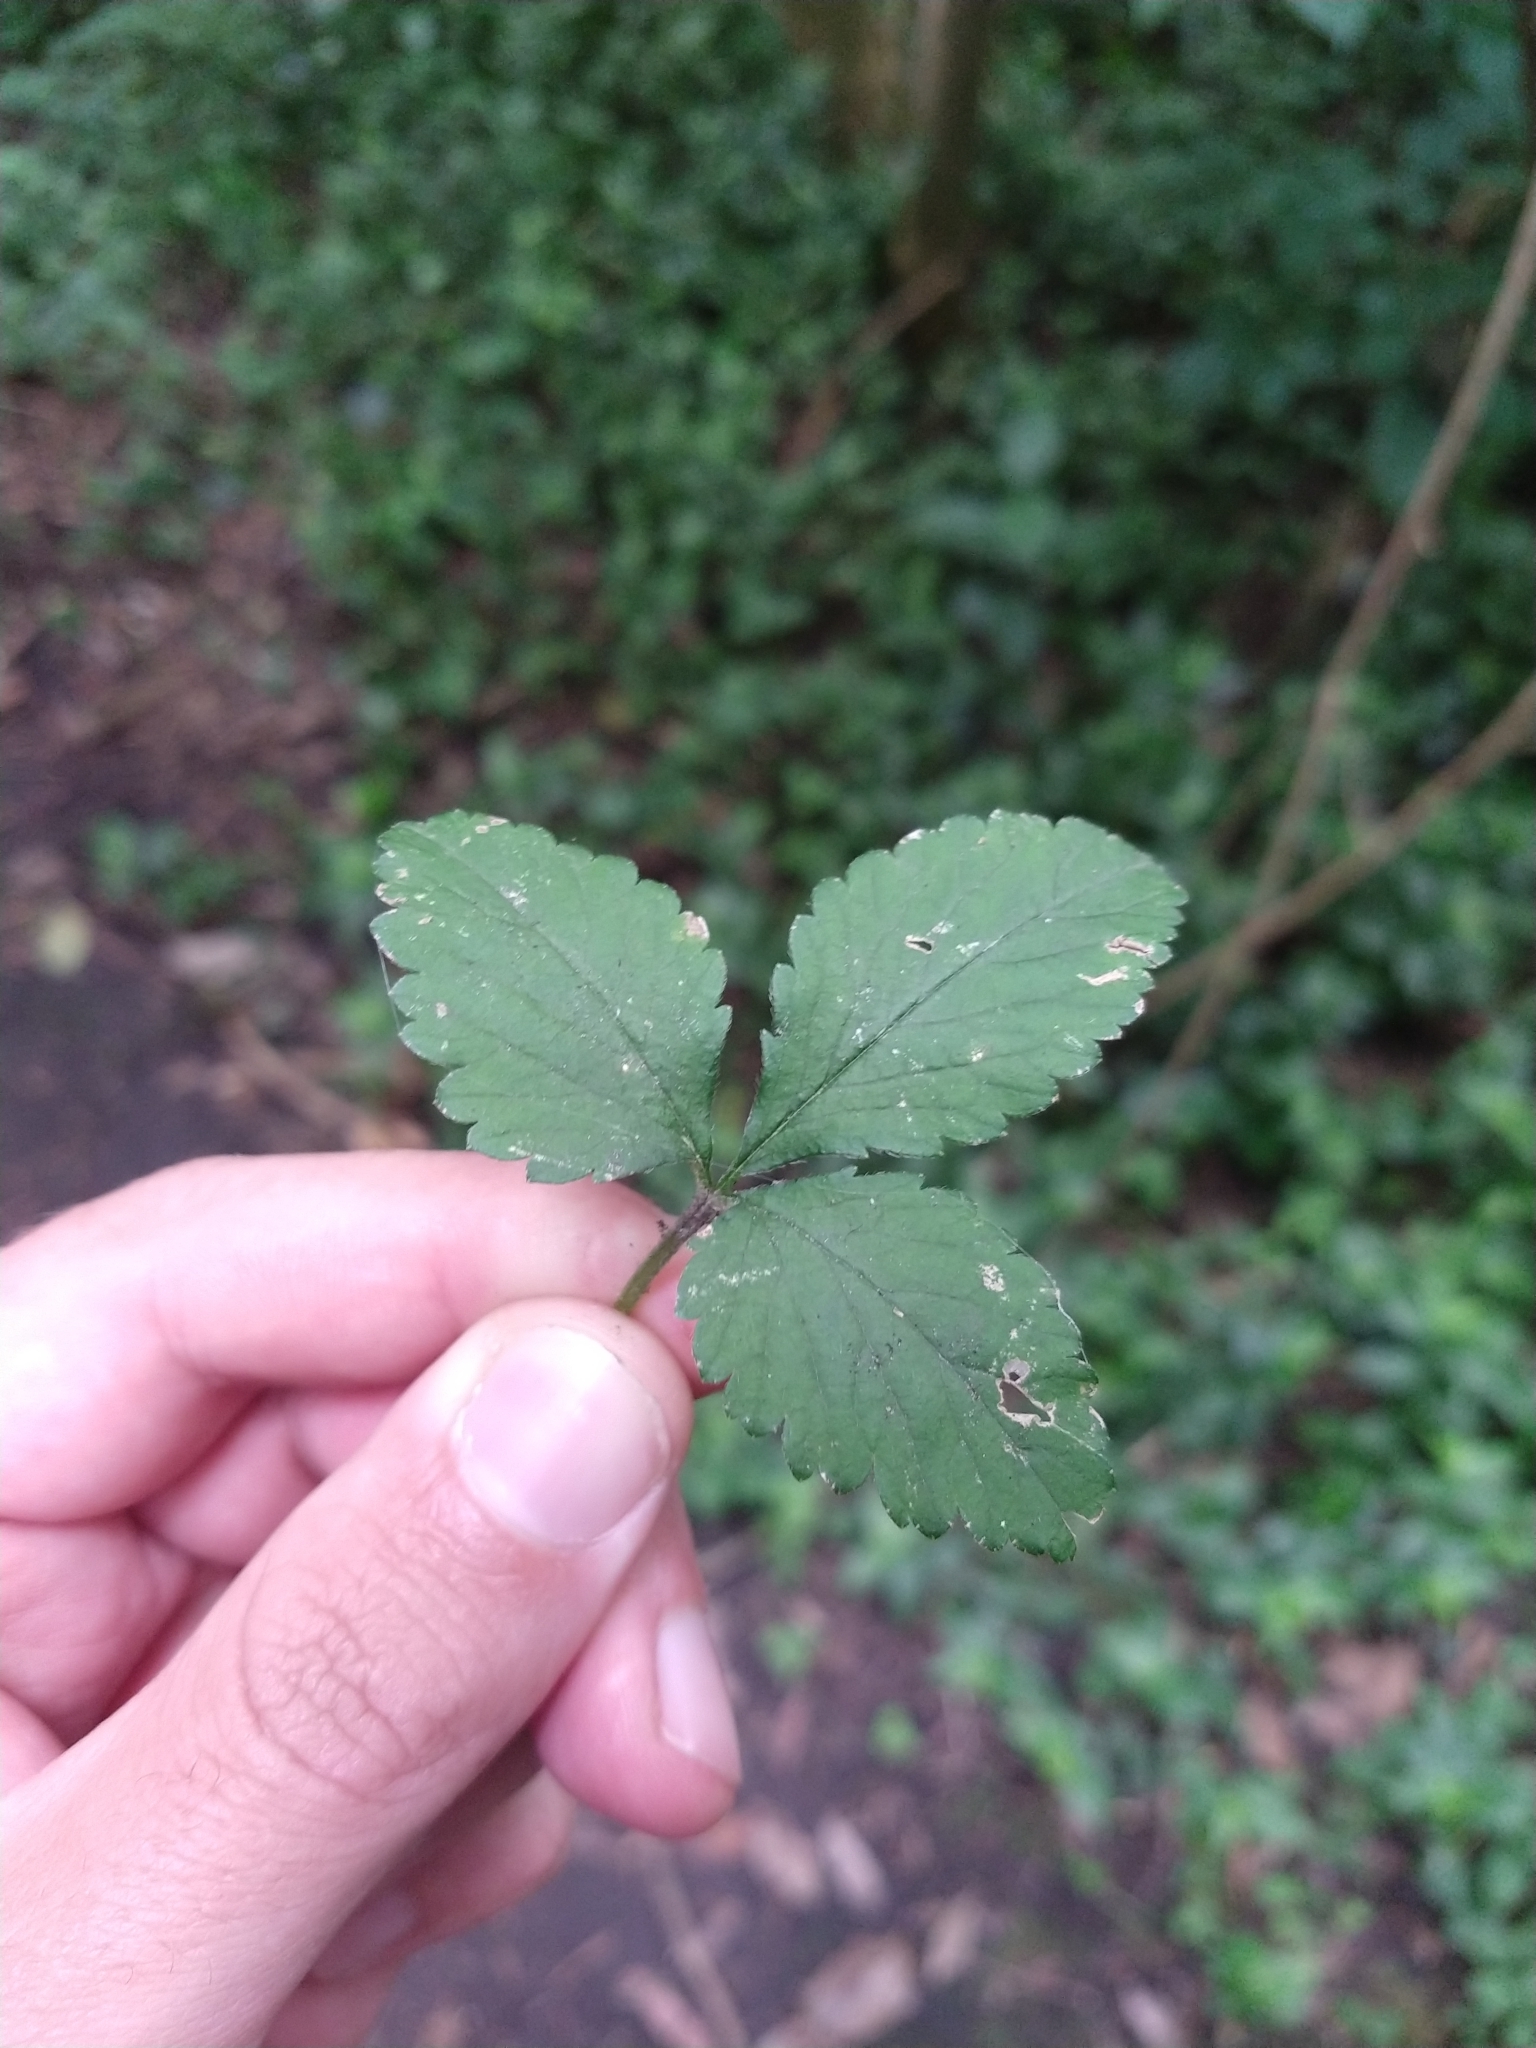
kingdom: Plantae
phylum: Tracheophyta
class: Magnoliopsida
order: Rosales
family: Rosaceae
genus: Potentilla
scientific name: Potentilla indica
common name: Yellow-flowered strawberry
